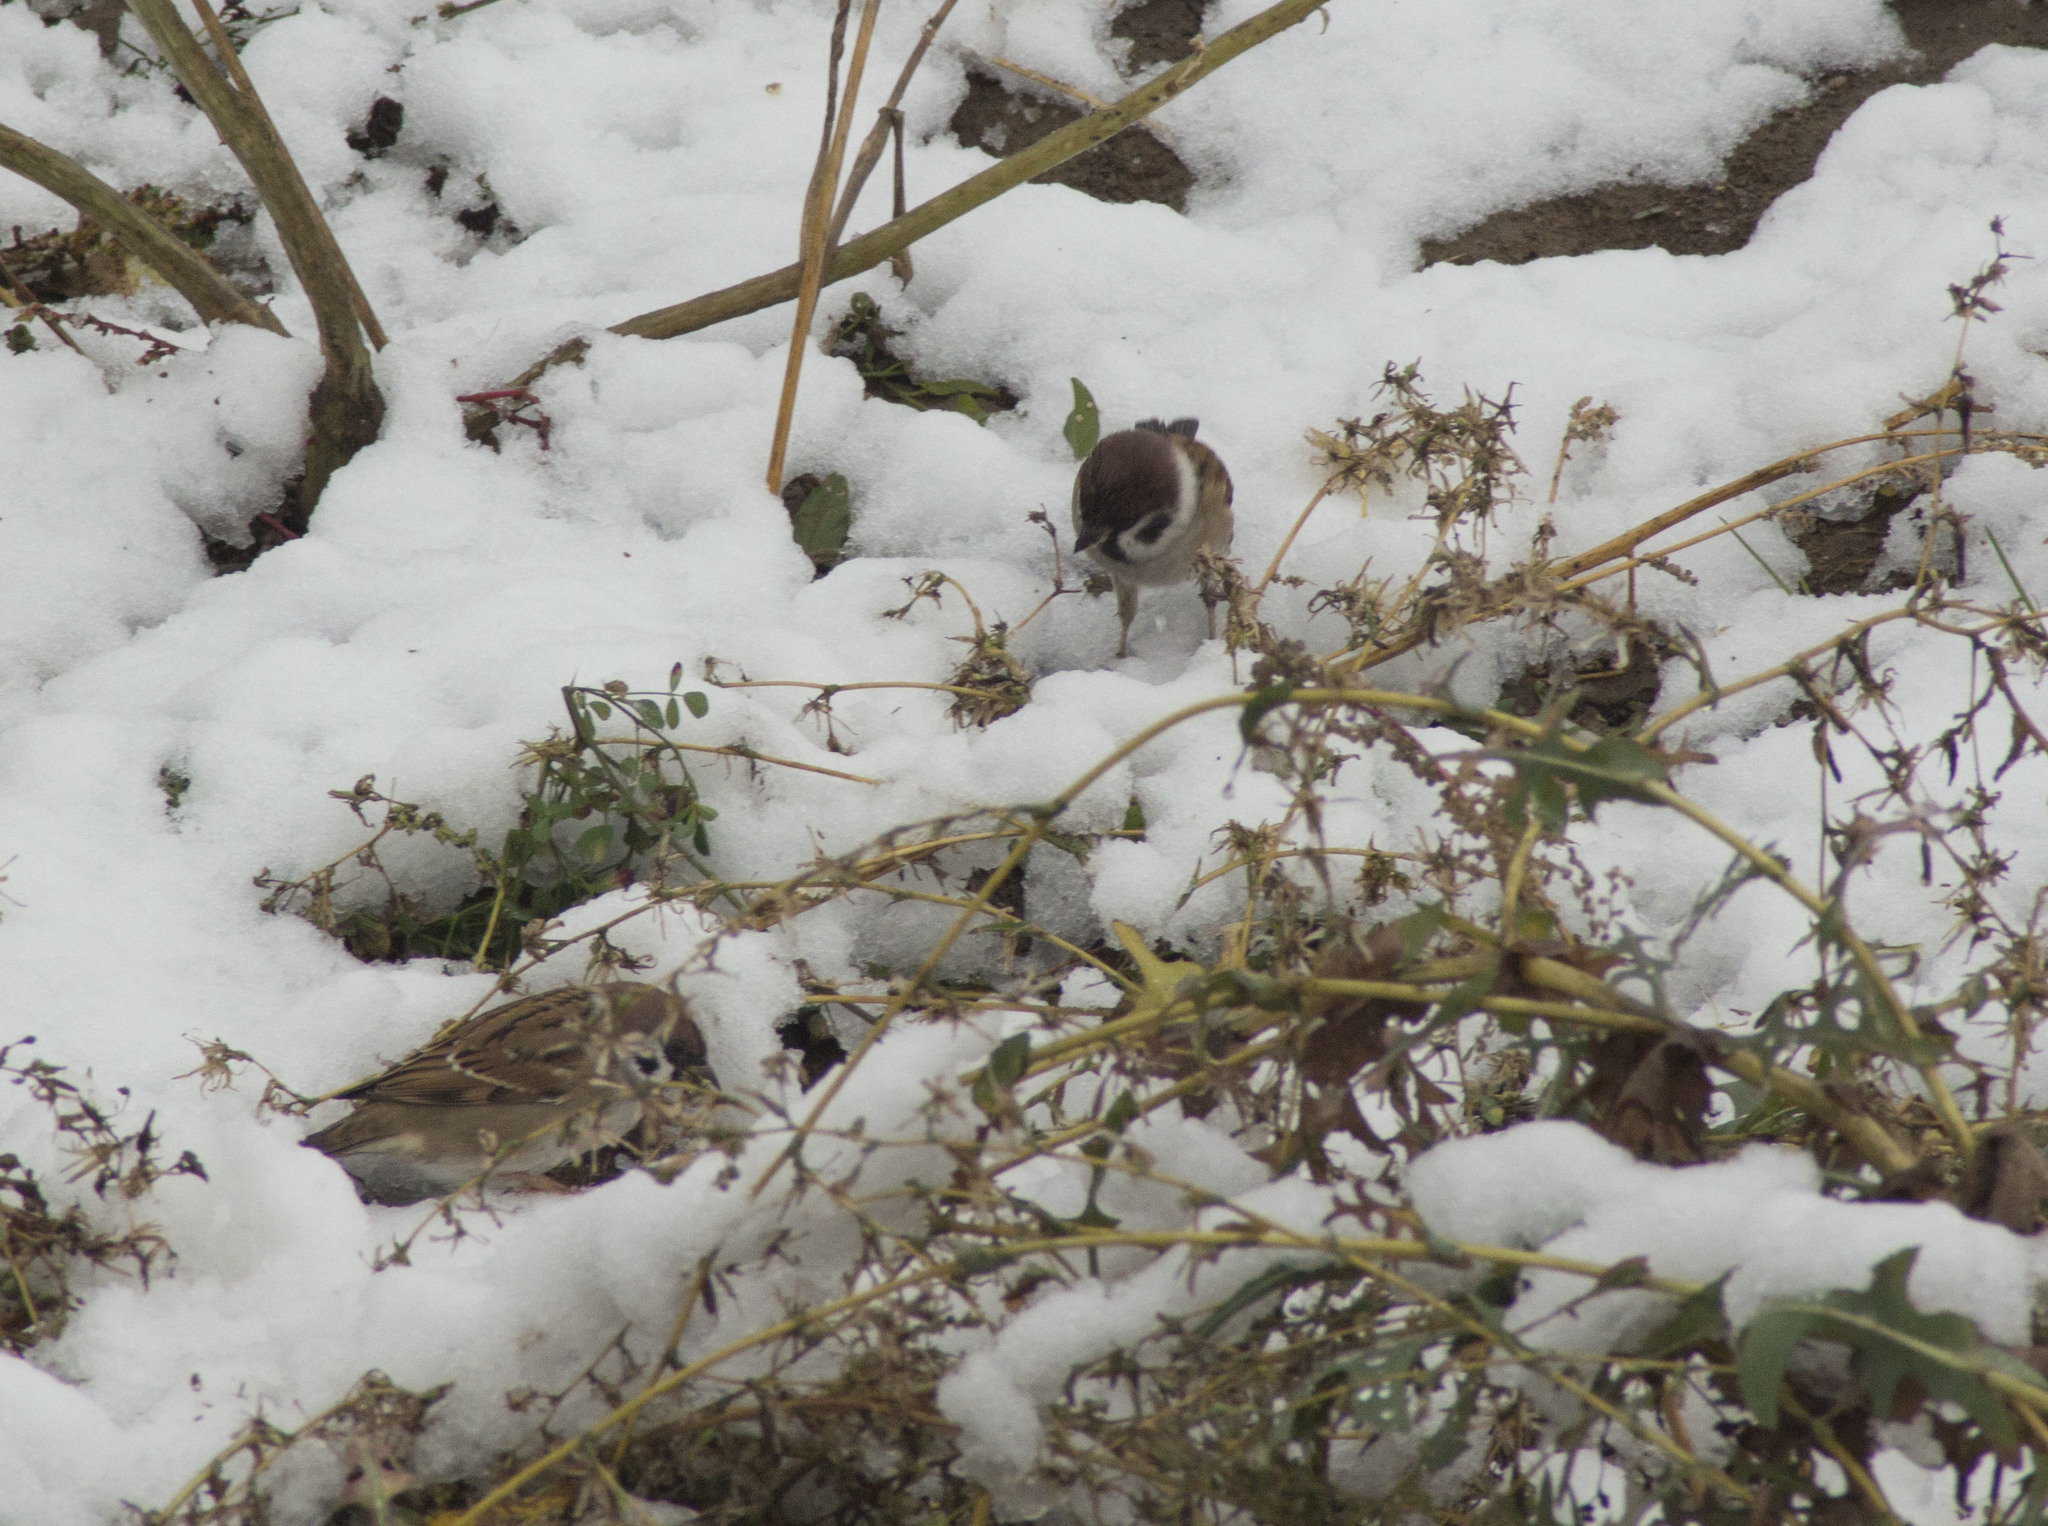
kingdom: Animalia
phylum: Chordata
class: Aves
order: Passeriformes
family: Passeridae
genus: Passer
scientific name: Passer montanus
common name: Eurasian tree sparrow
